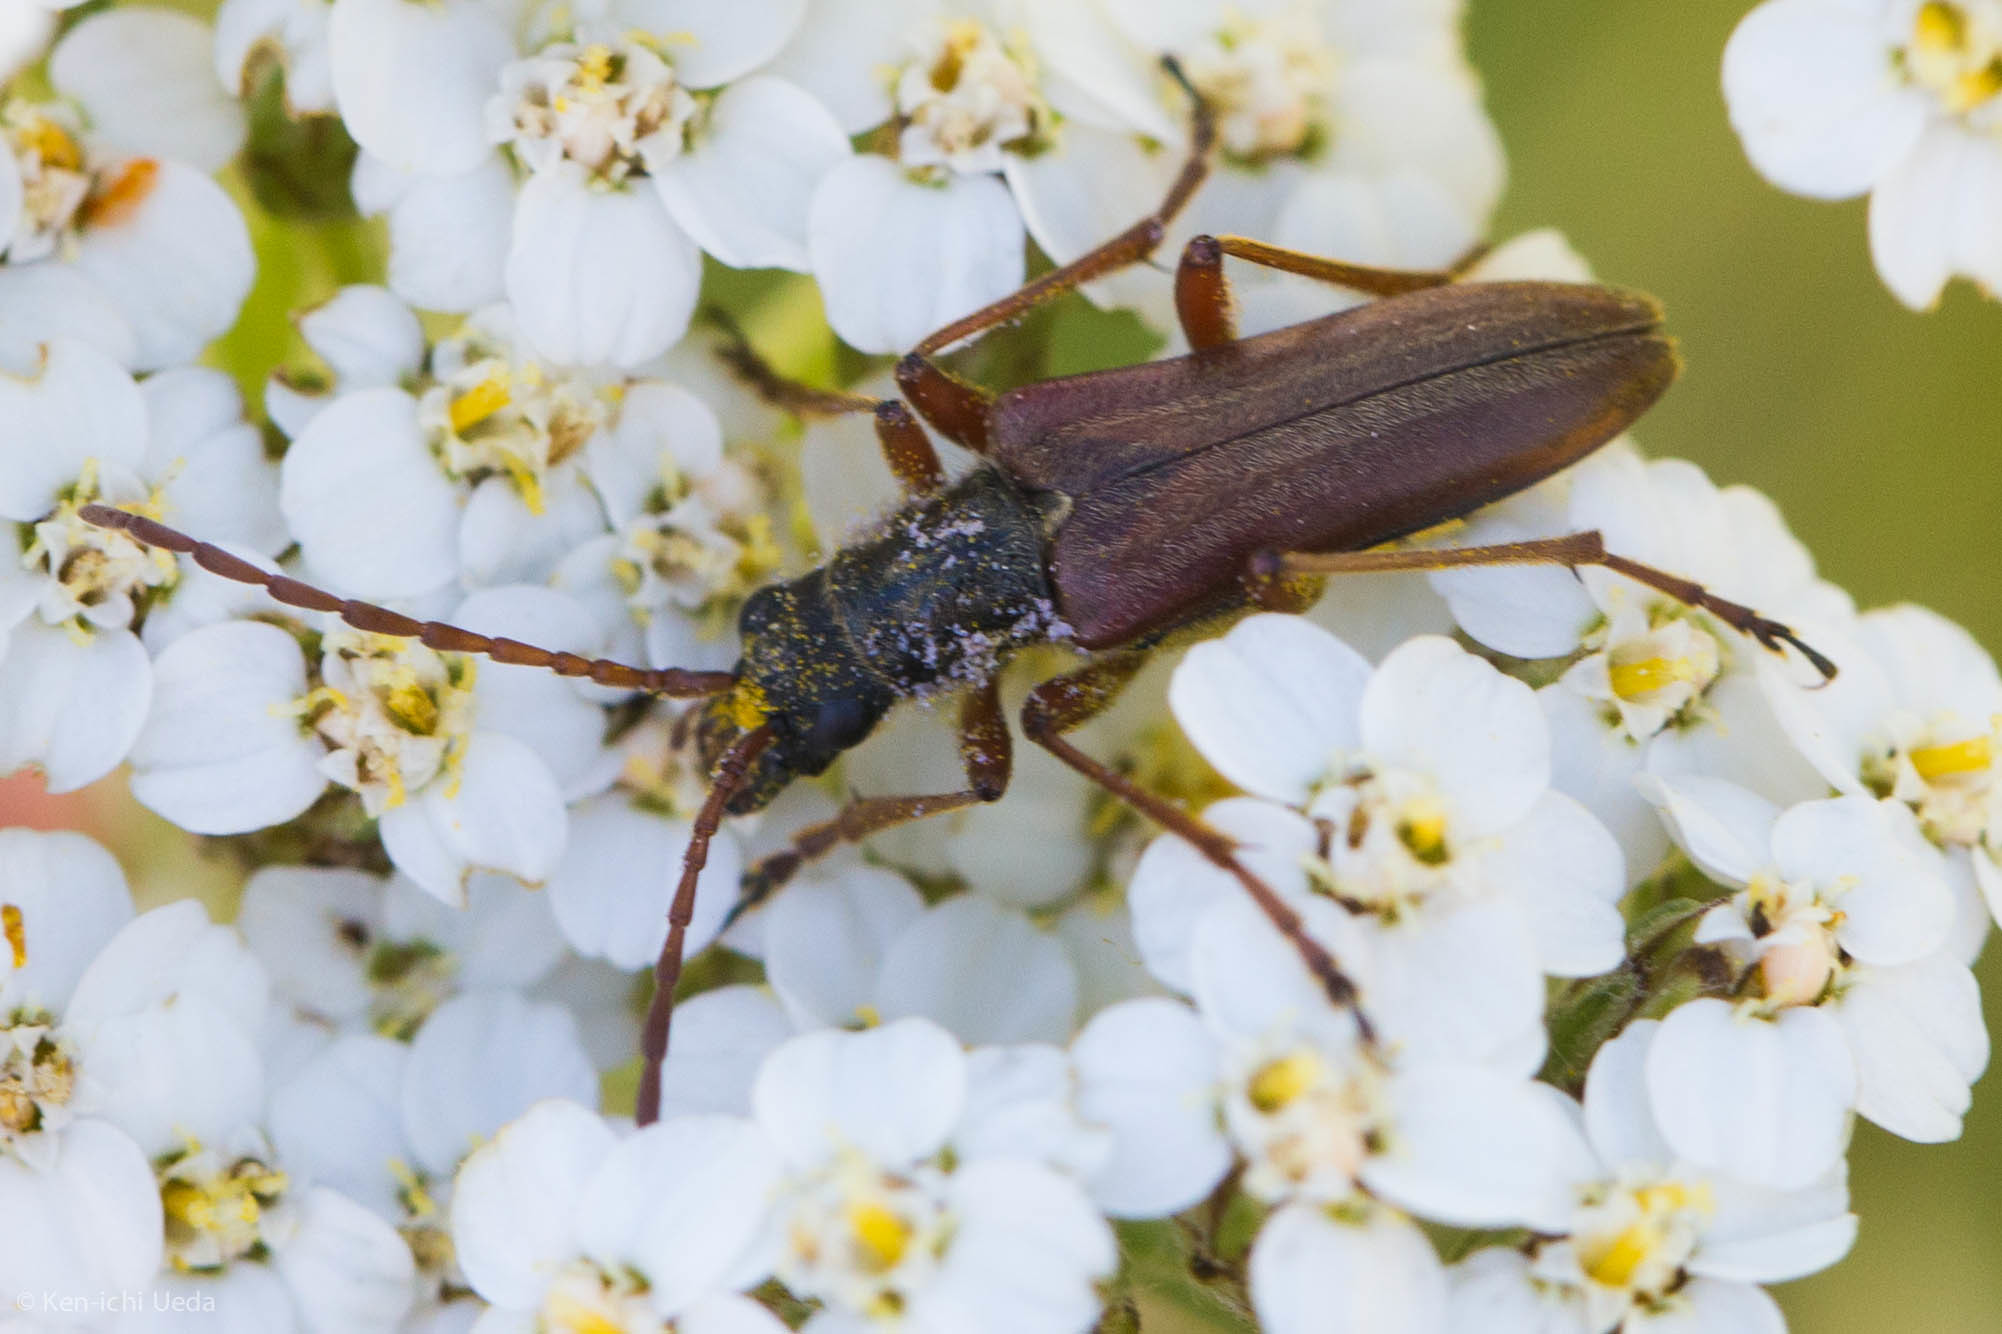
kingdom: Animalia
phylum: Arthropoda
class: Insecta
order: Coleoptera
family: Cerambycidae
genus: Stenocorus
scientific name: Stenocorus vestitus
